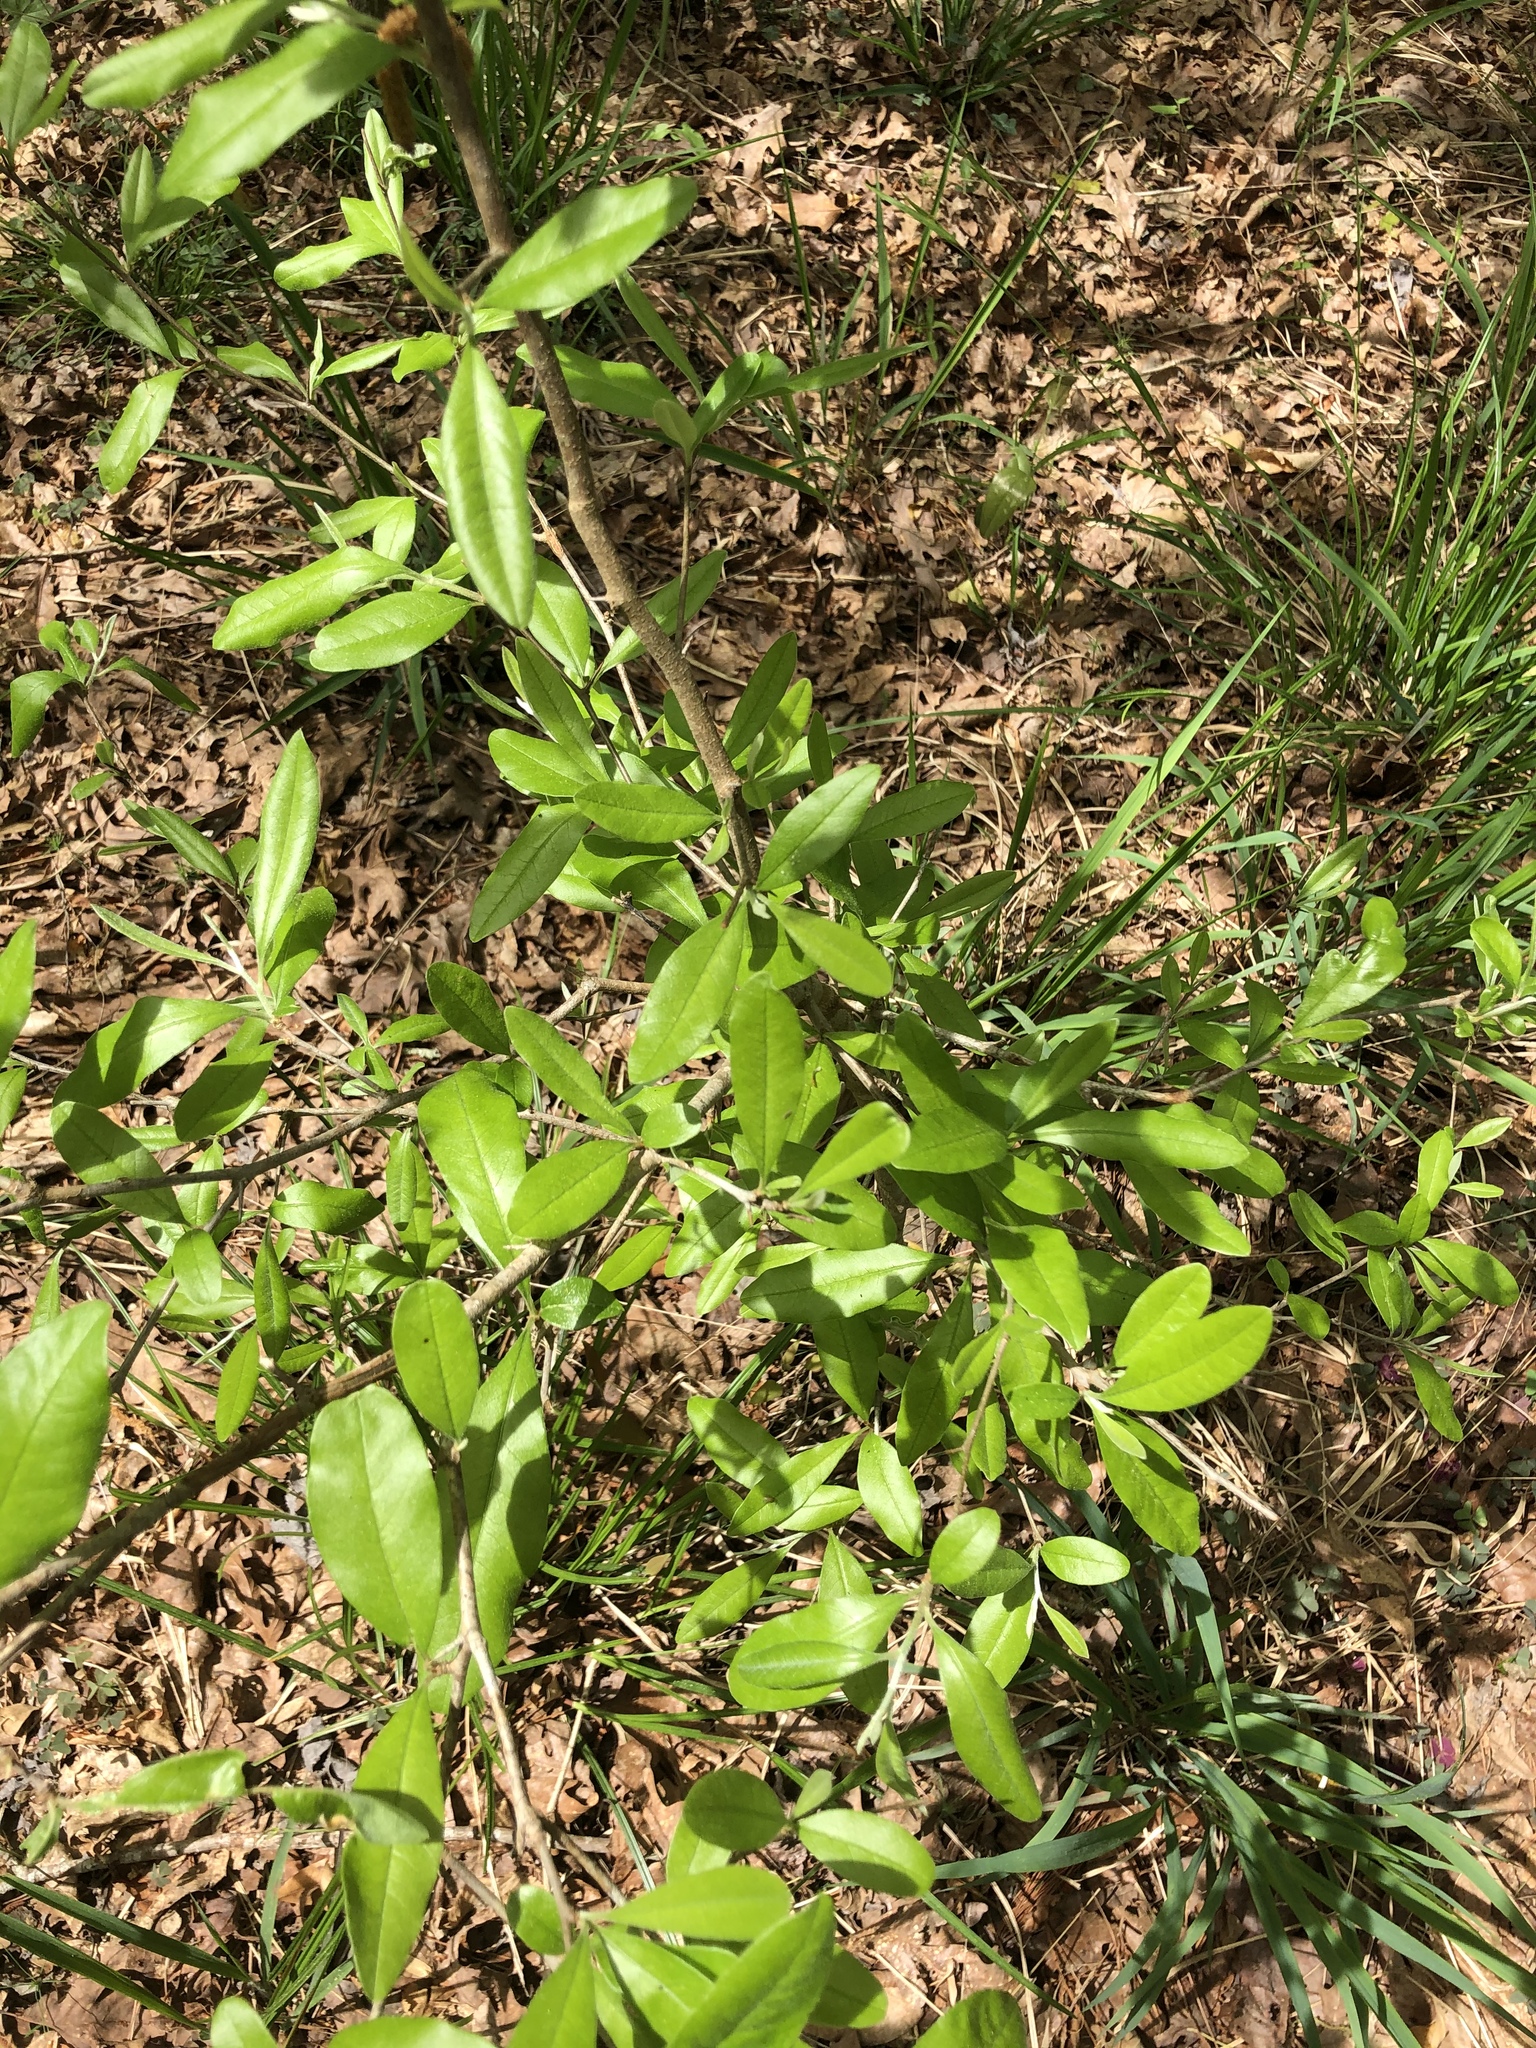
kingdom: Plantae
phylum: Tracheophyta
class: Magnoliopsida
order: Ericales
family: Sapotaceae
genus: Sideroxylon
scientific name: Sideroxylon lanuginosum
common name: Chittamwood
